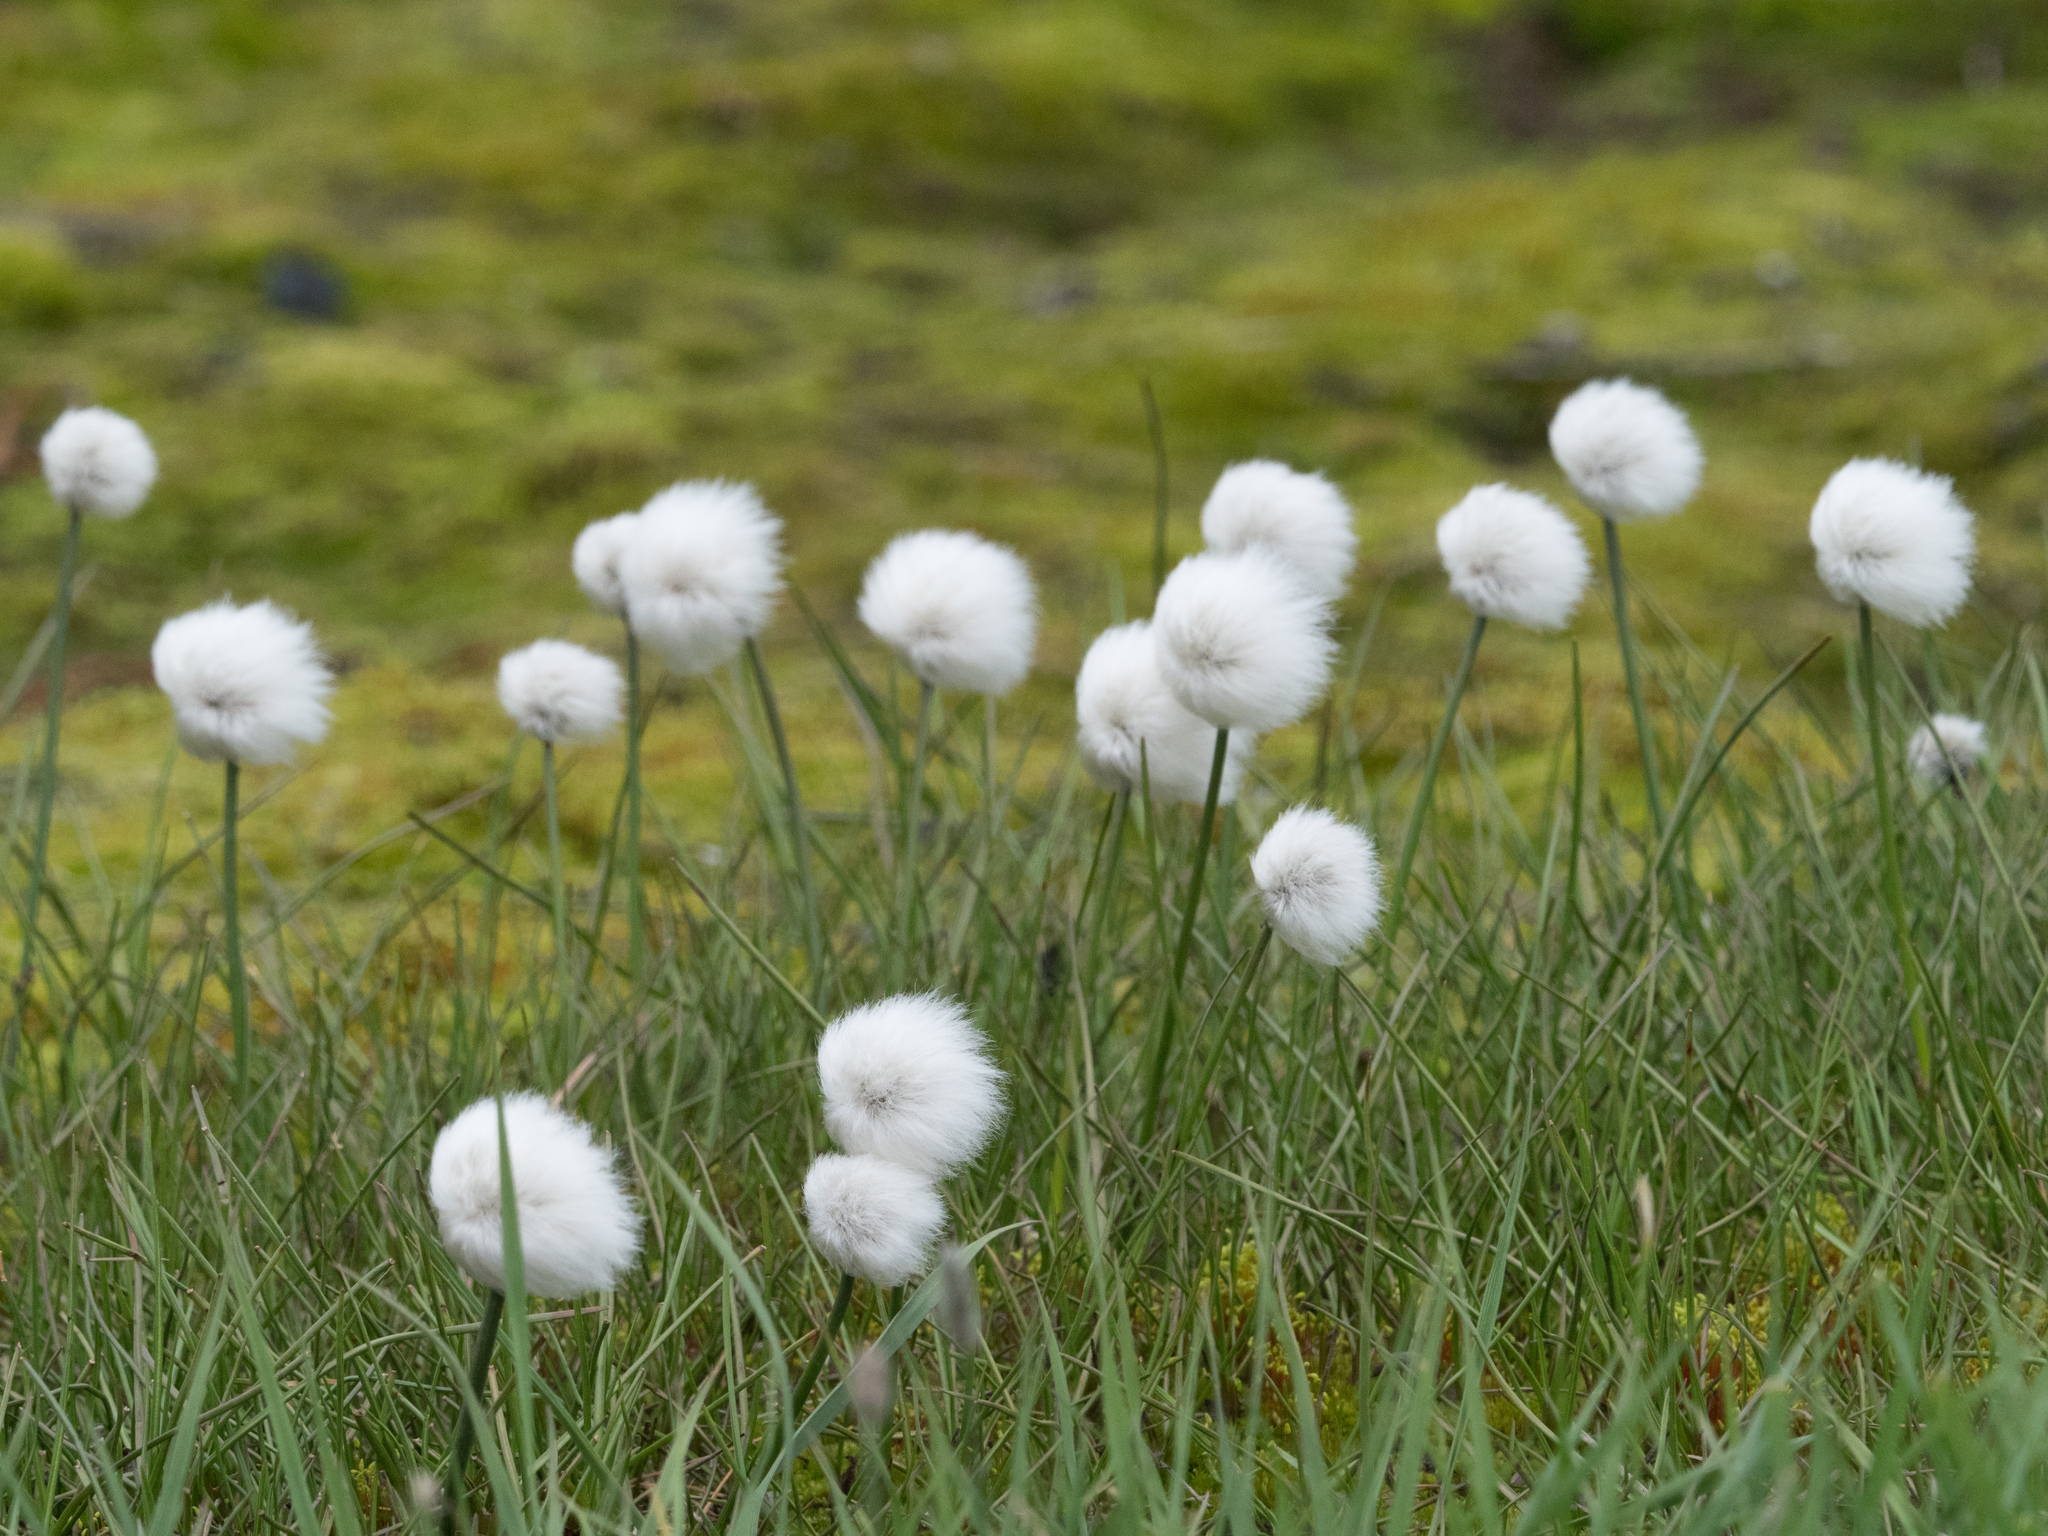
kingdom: Plantae
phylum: Tracheophyta
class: Liliopsida
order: Poales
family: Cyperaceae
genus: Eriophorum
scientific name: Eriophorum scheuchzeri
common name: Scheuchzer's cottongrass
